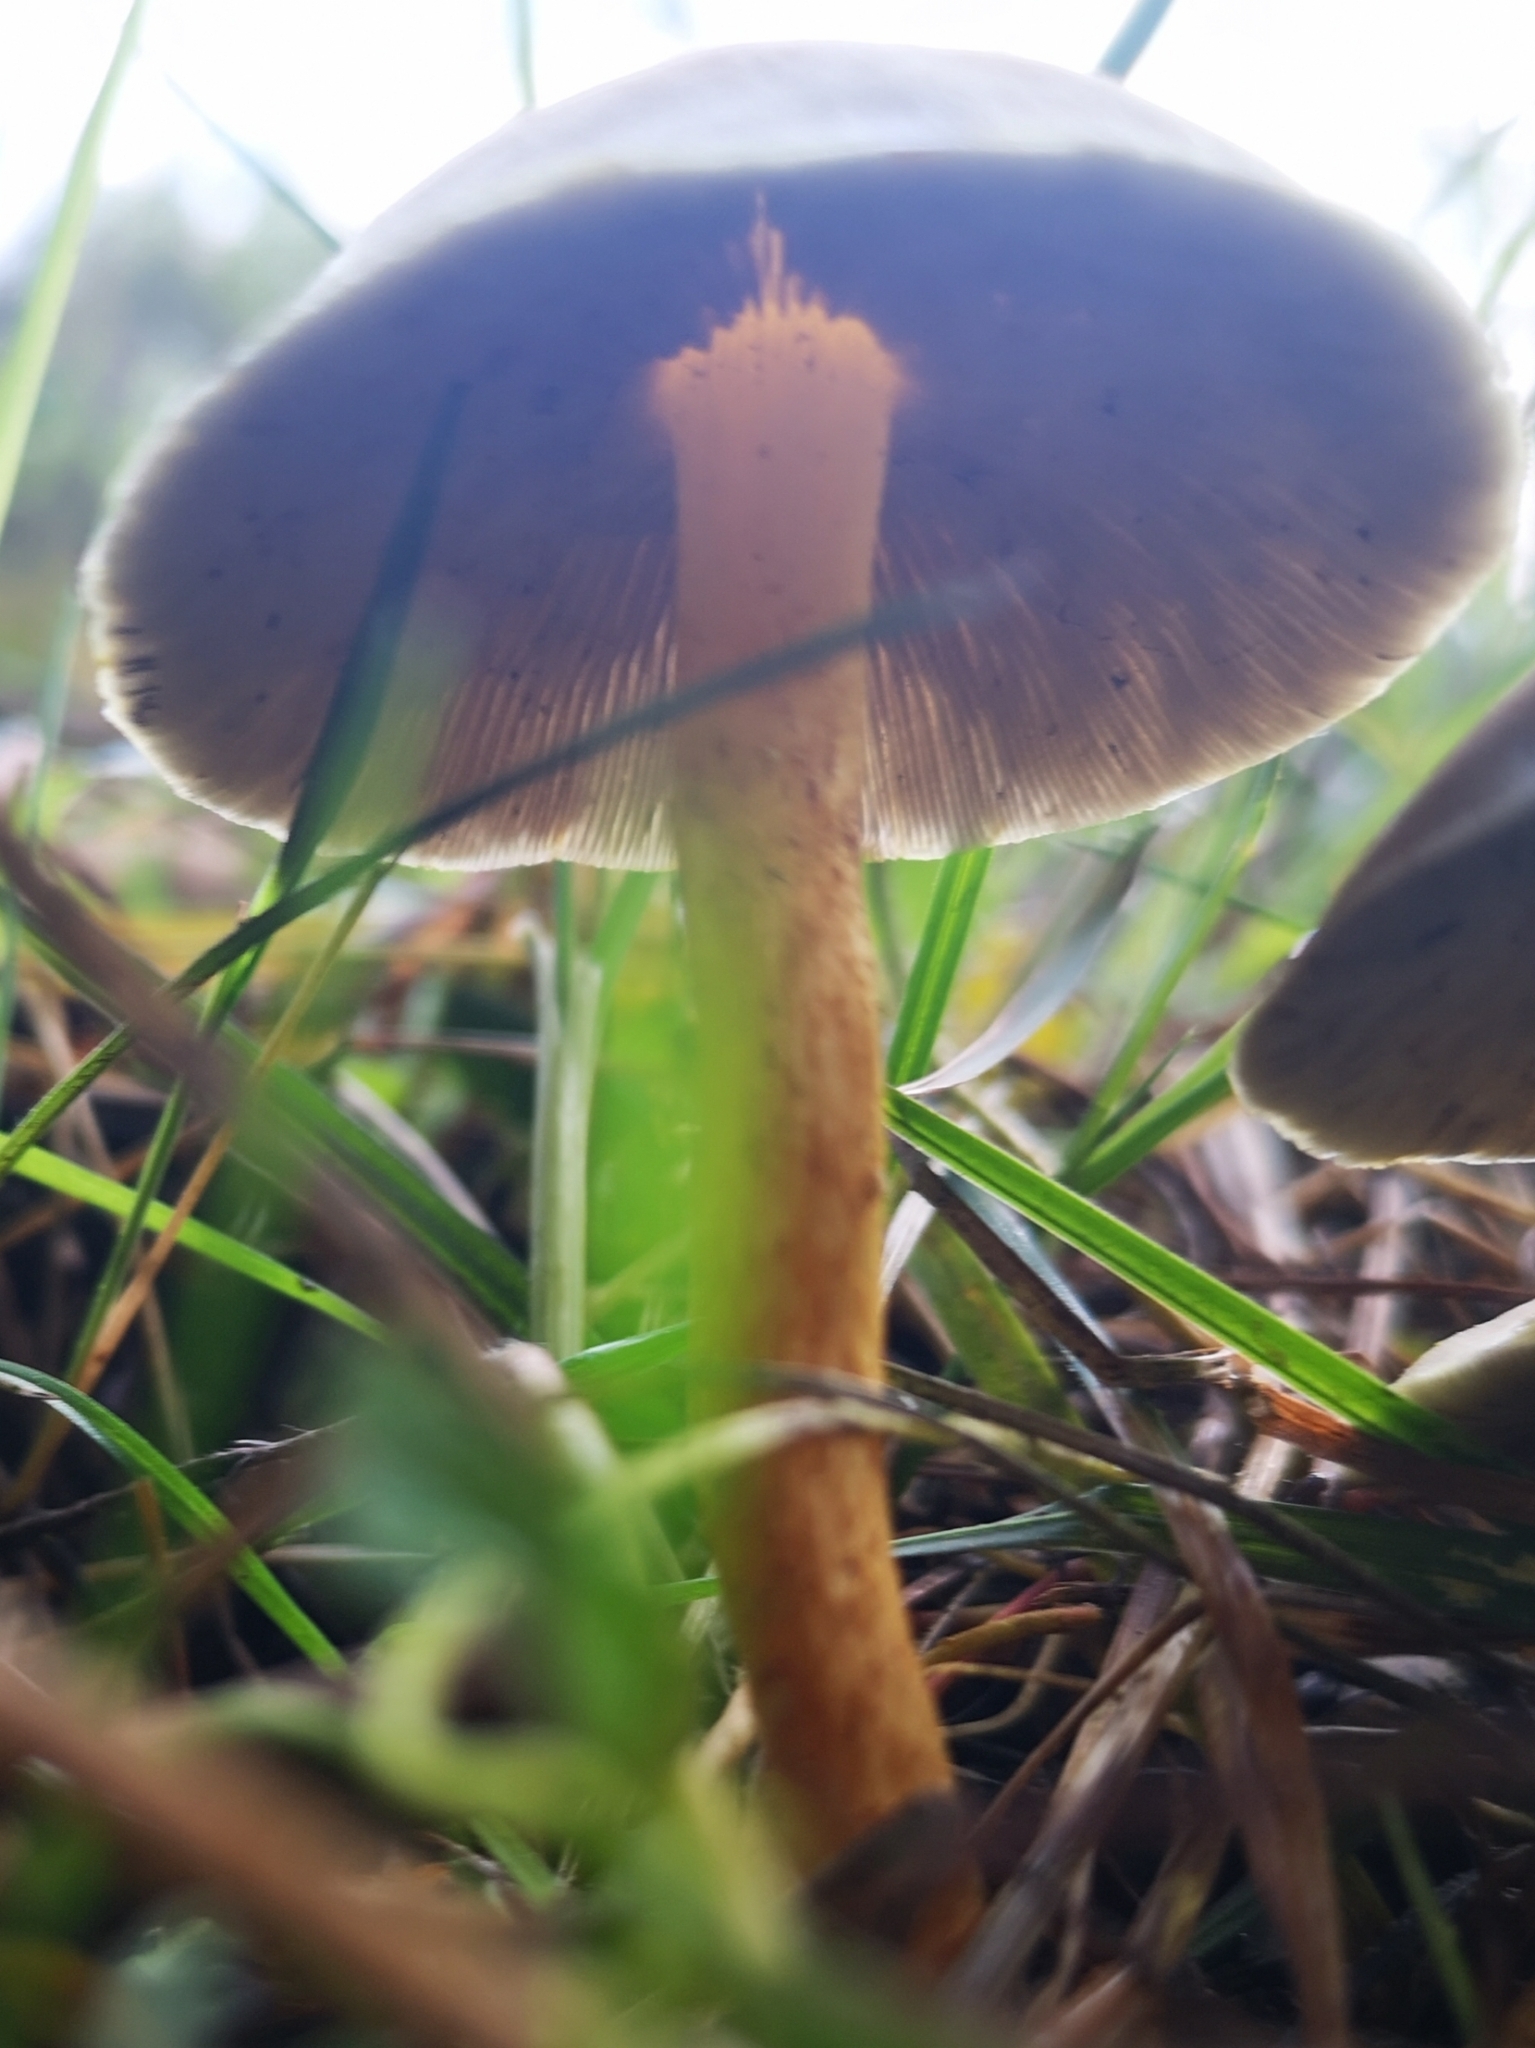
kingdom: Fungi
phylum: Basidiomycota
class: Agaricomycetes
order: Agaricales
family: Strophariaceae
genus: Hypholoma
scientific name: Hypholoma fasciculare
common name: Sulphur tuft
